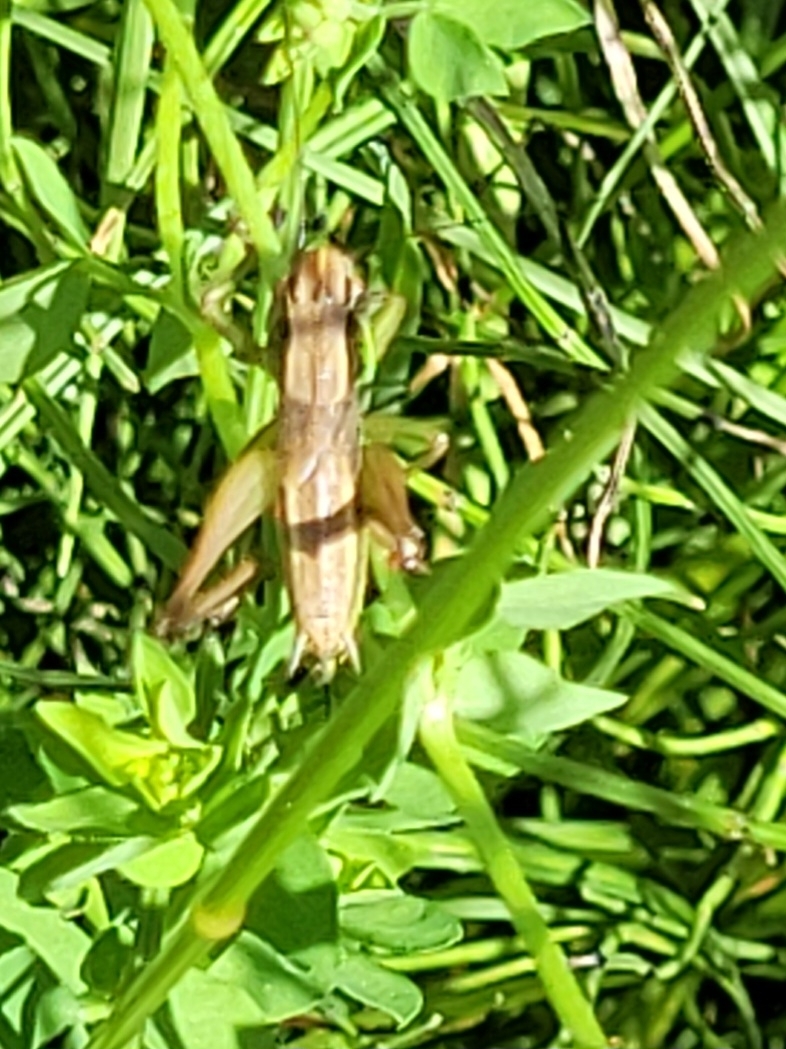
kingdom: Animalia
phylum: Arthropoda
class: Insecta
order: Orthoptera
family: Tettigoniidae
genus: Roeseliana
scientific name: Roeseliana roeselii
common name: Roesel's bush cricket
